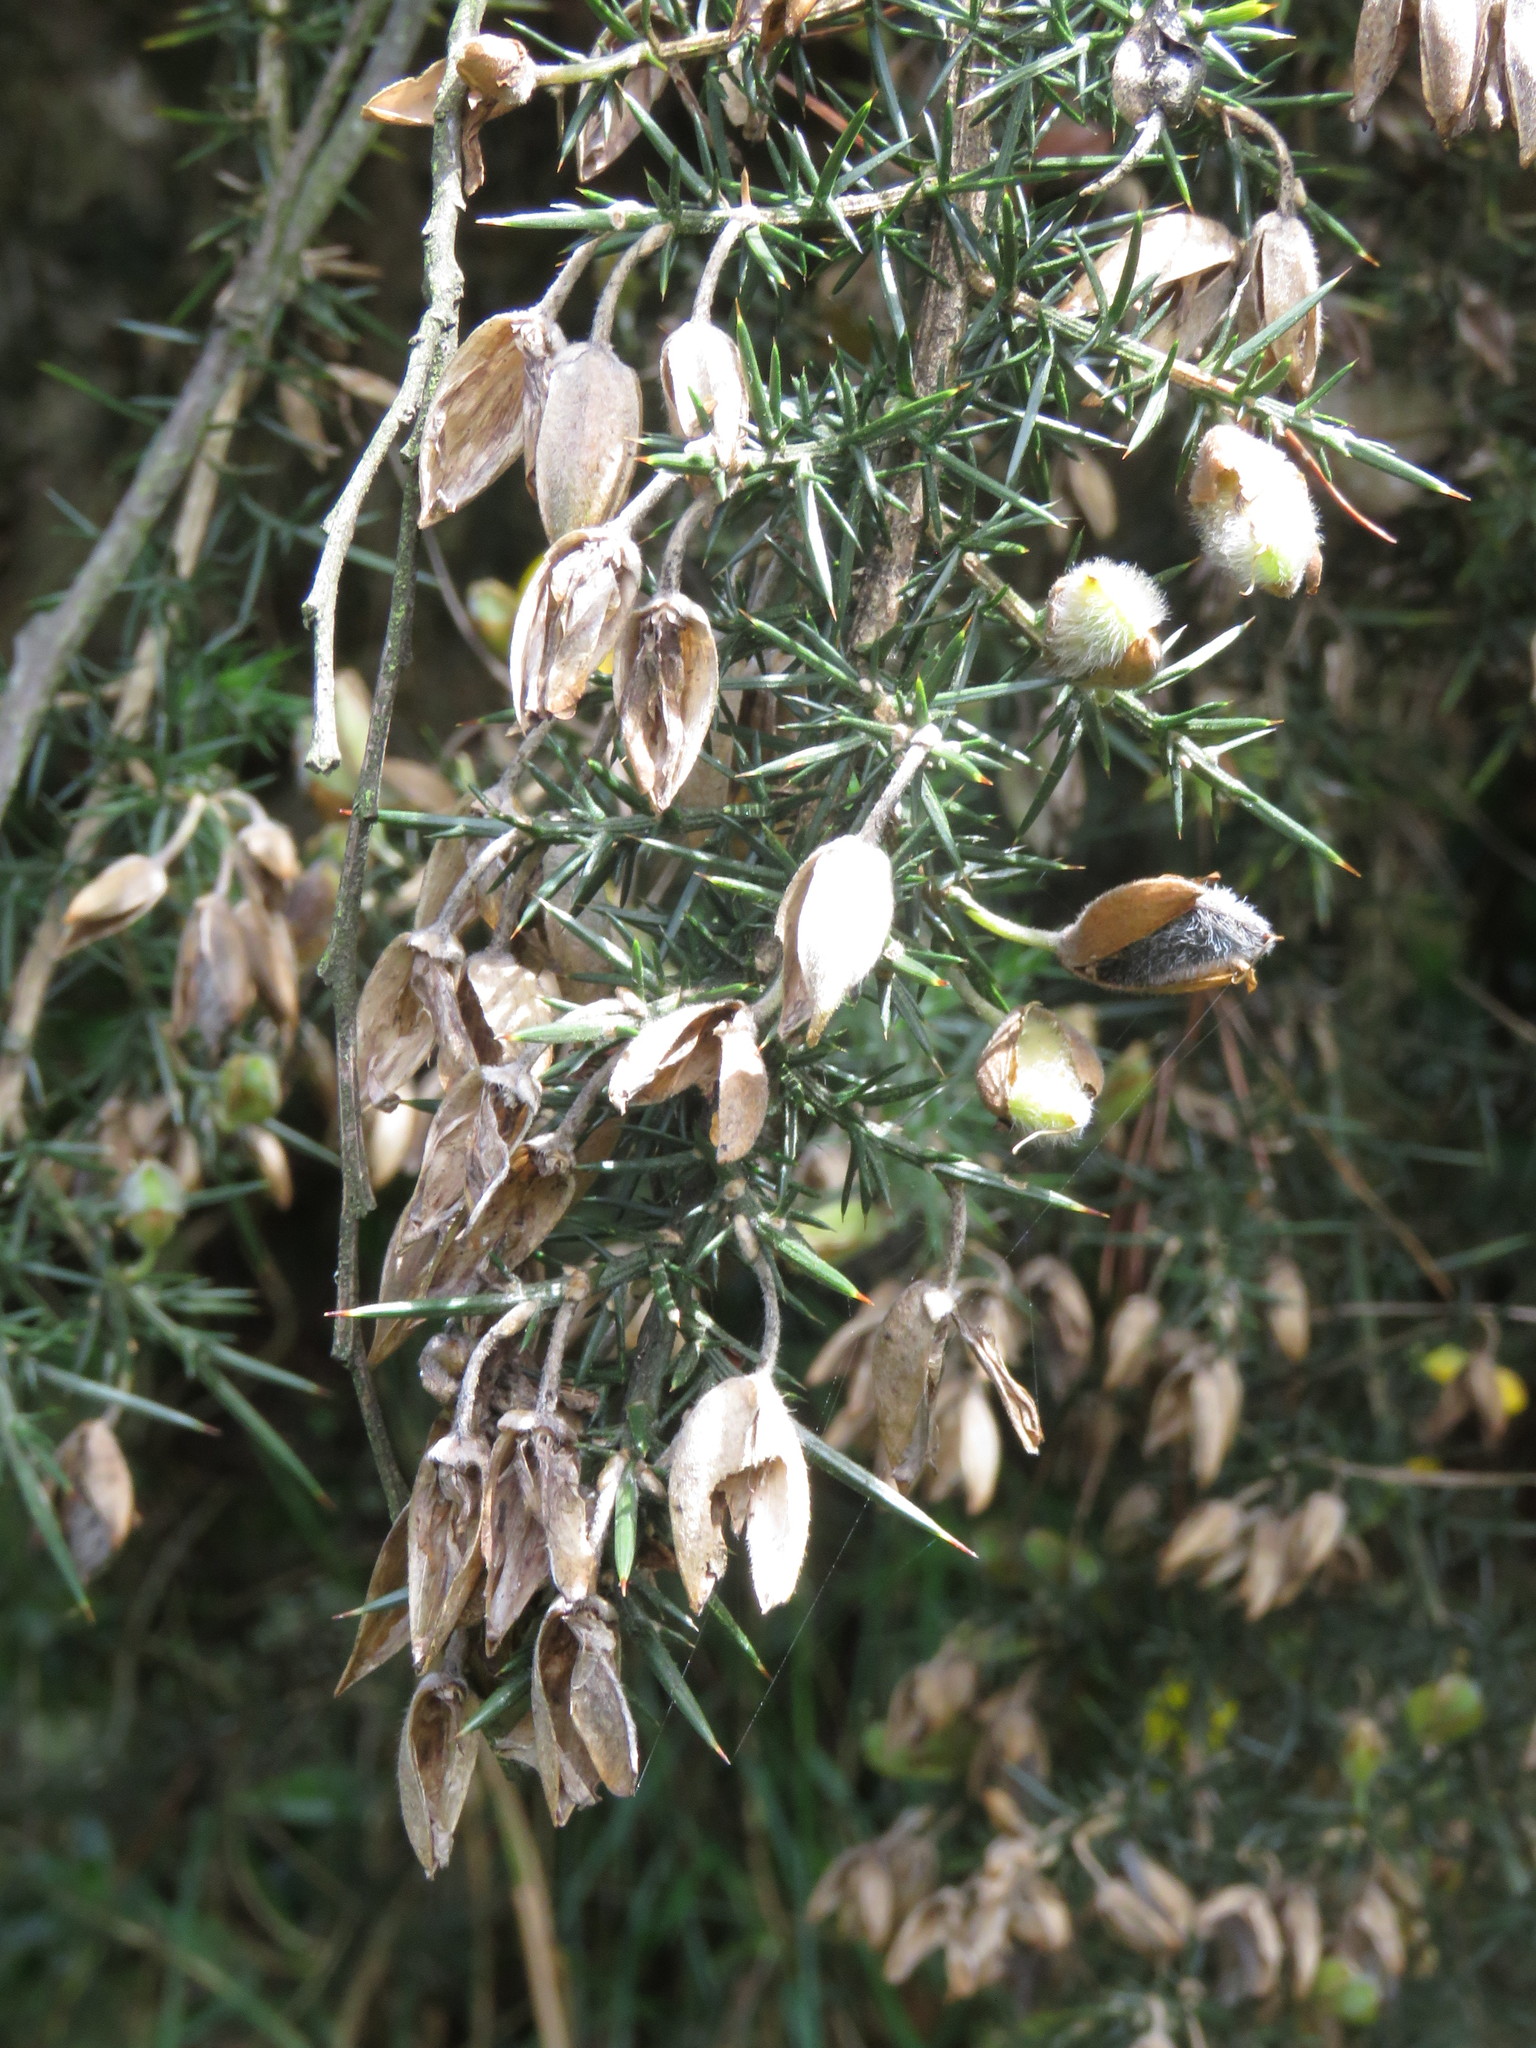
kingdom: Plantae
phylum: Tracheophyta
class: Magnoliopsida
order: Fabales
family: Fabaceae
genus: Ulex
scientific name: Ulex europaeus
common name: Common gorse
